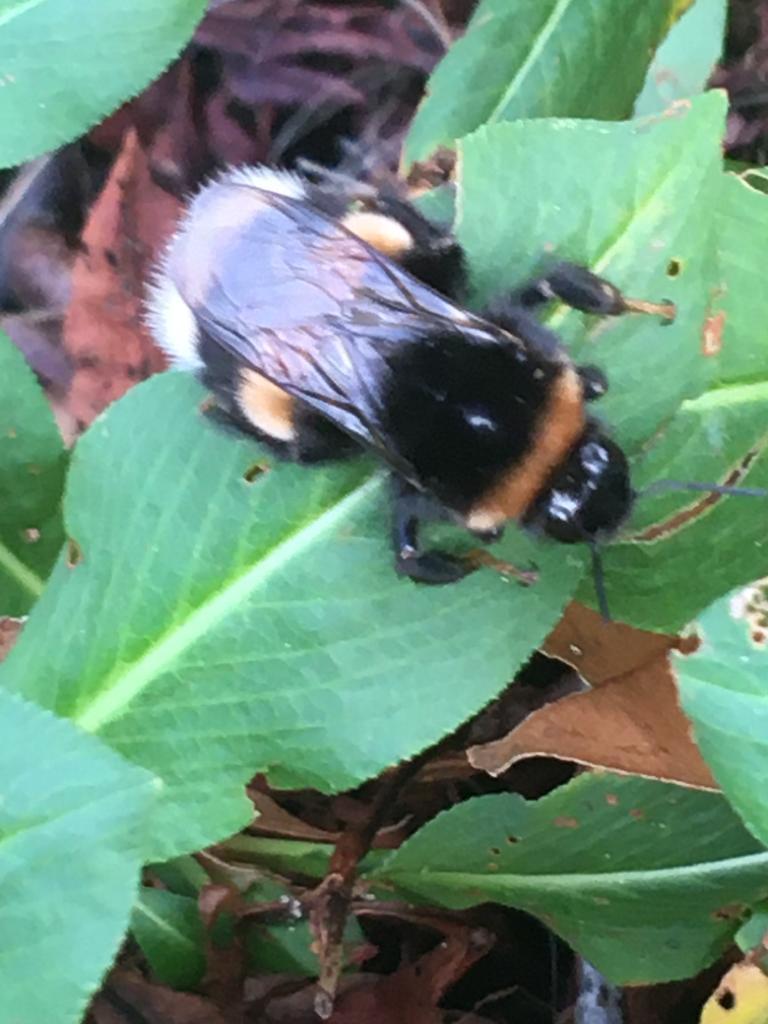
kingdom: Animalia
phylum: Arthropoda
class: Insecta
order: Hymenoptera
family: Apidae
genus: Bombus
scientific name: Bombus terrestris
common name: Buff-tailed bumblebee
